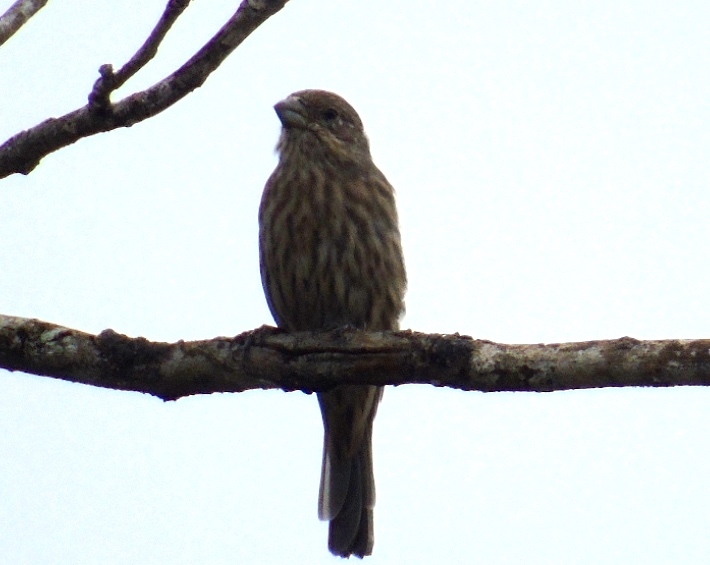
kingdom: Animalia
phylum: Chordata
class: Aves
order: Passeriformes
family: Fringillidae
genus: Haemorhous
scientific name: Haemorhous mexicanus
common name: House finch
